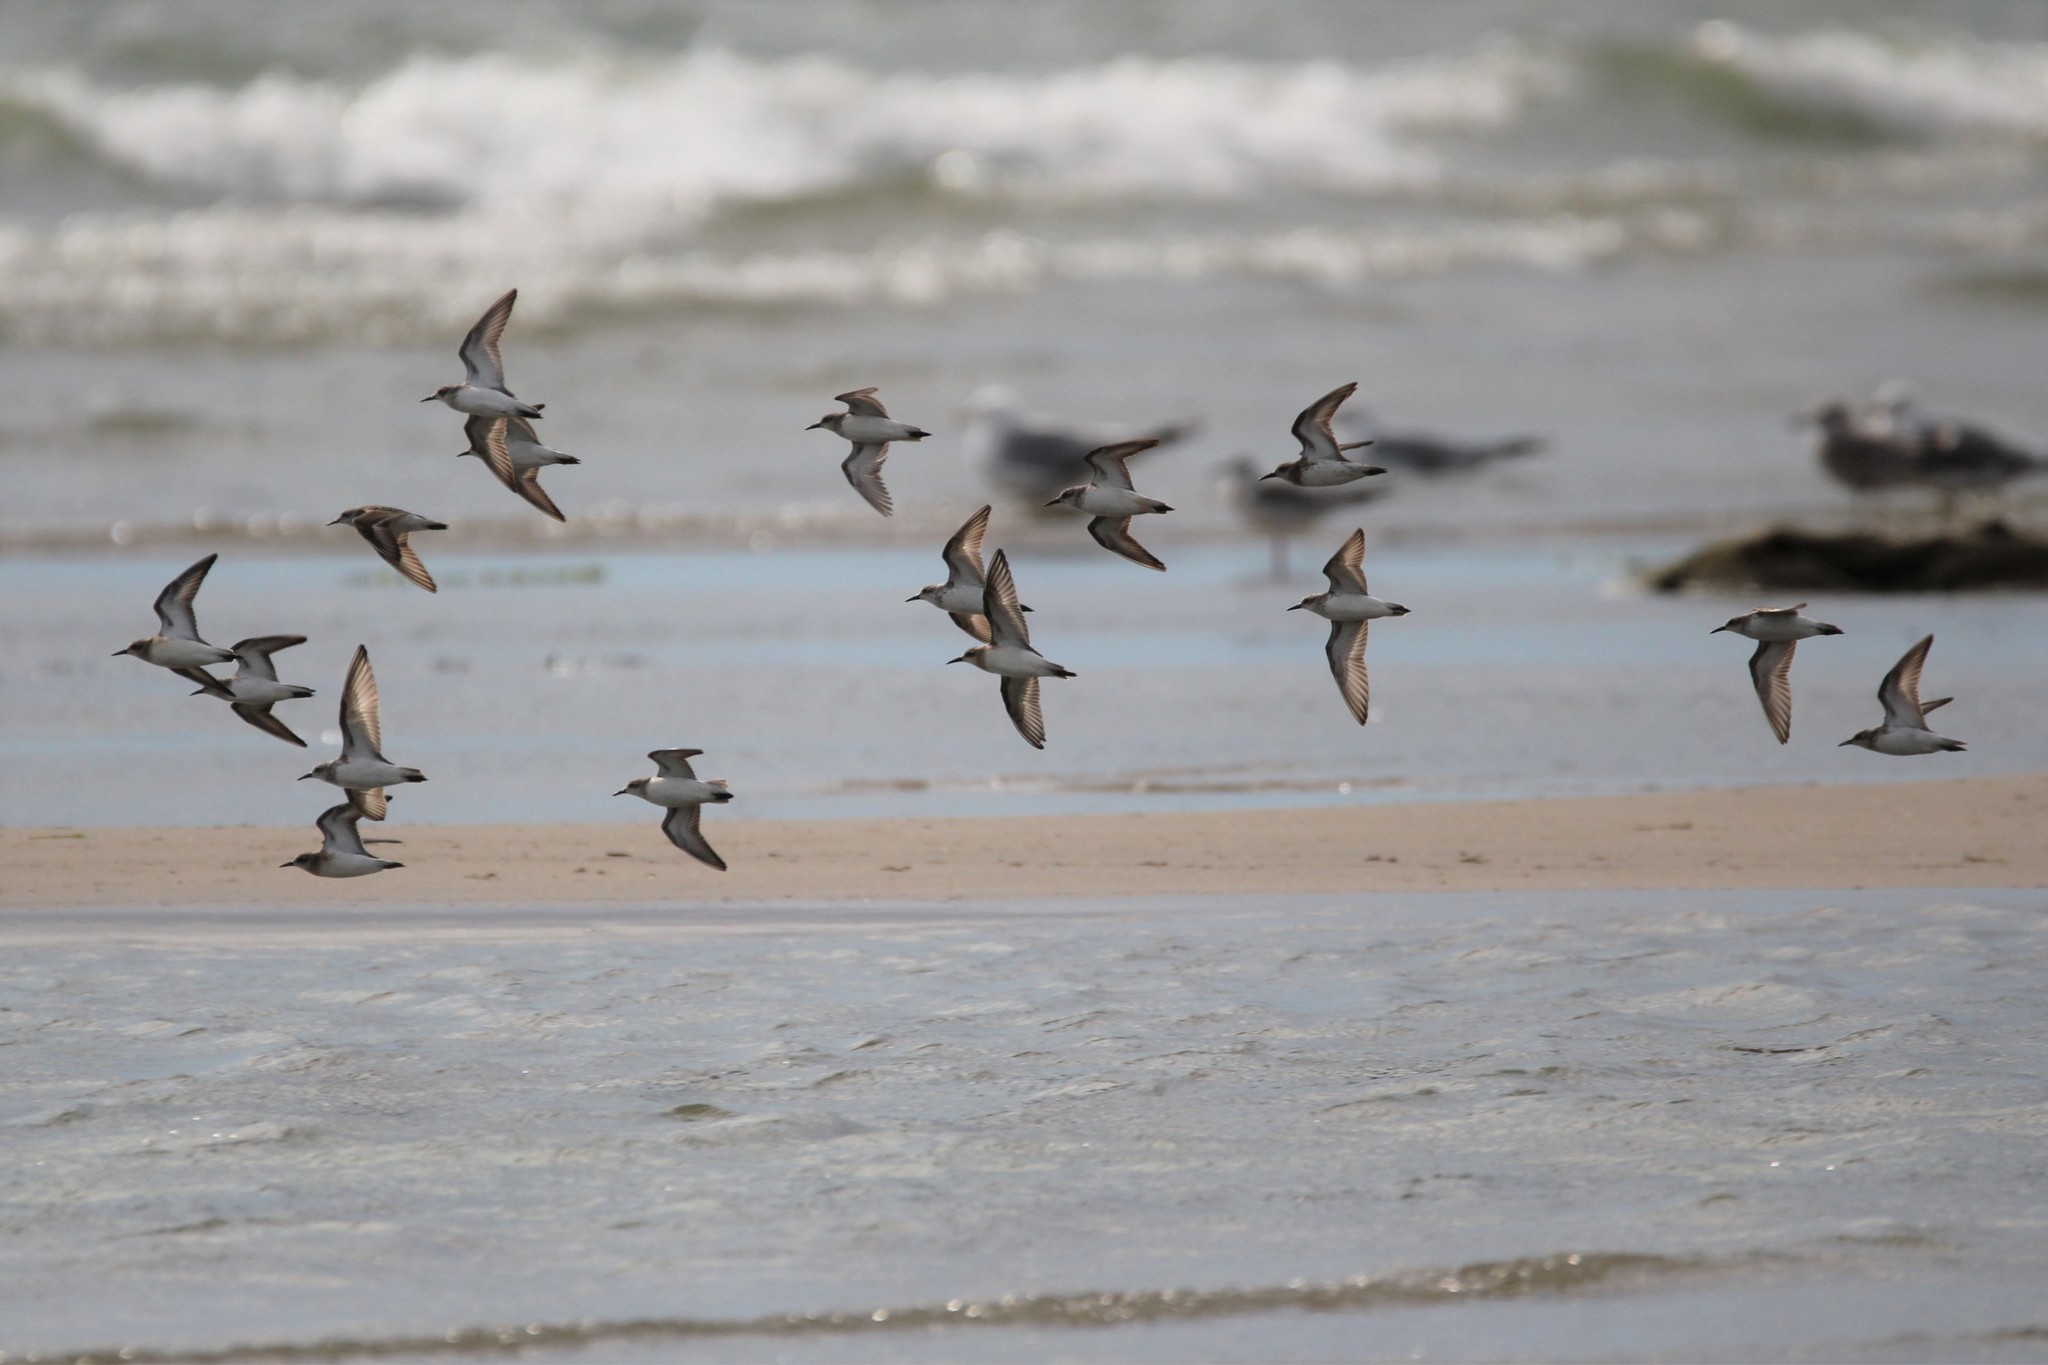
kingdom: Animalia
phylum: Chordata
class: Aves
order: Charadriiformes
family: Scolopacidae
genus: Calidris
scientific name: Calidris pusilla
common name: Semipalmated sandpiper
